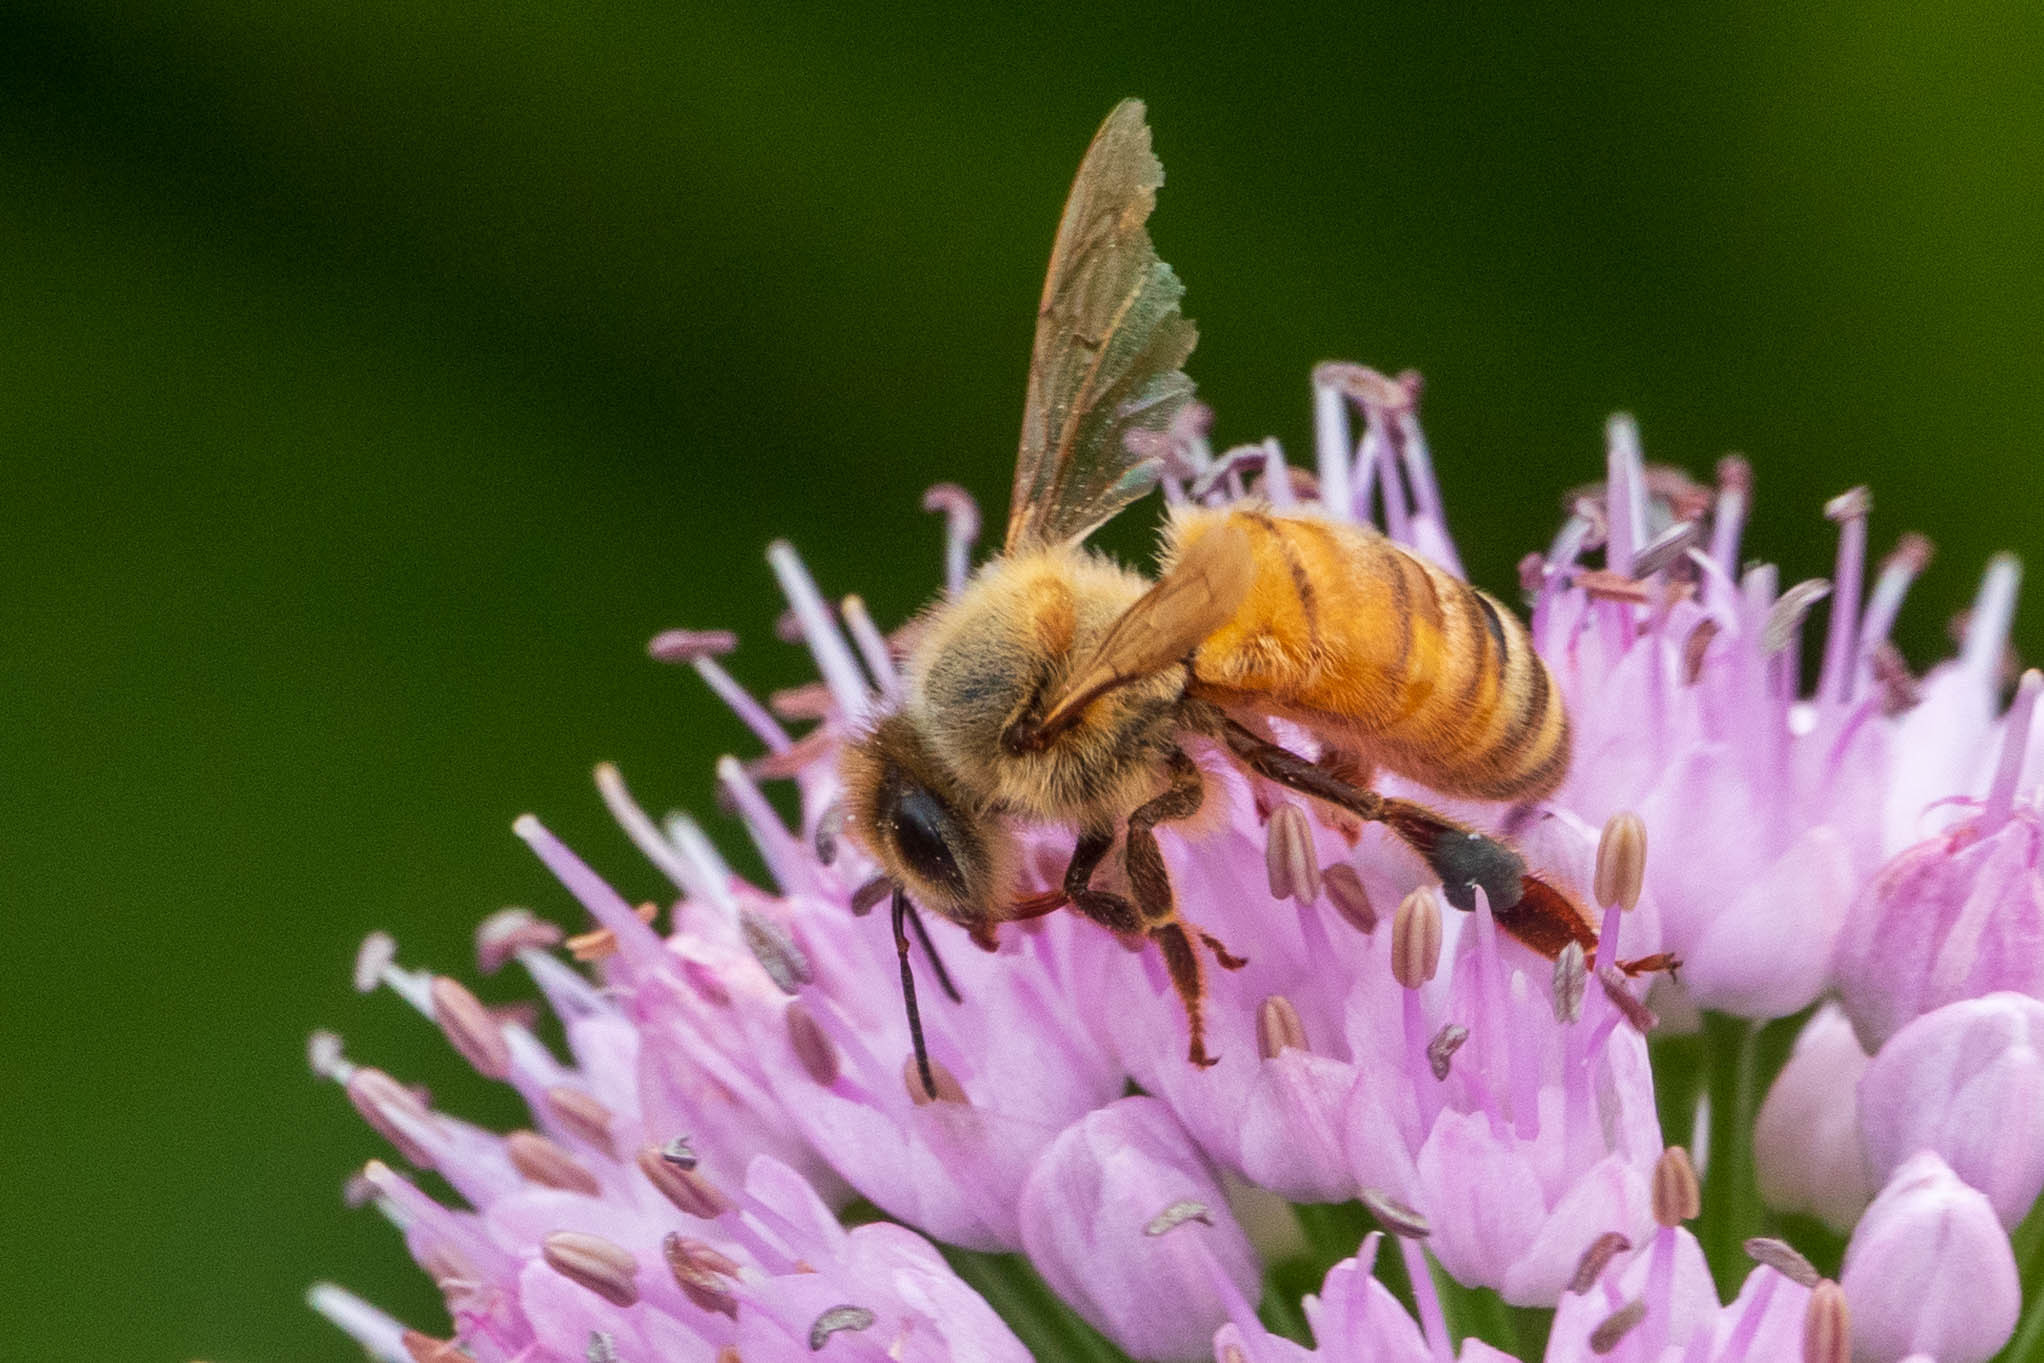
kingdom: Animalia
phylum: Arthropoda
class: Insecta
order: Hymenoptera
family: Apidae
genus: Apis
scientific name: Apis mellifera
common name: Honey bee
